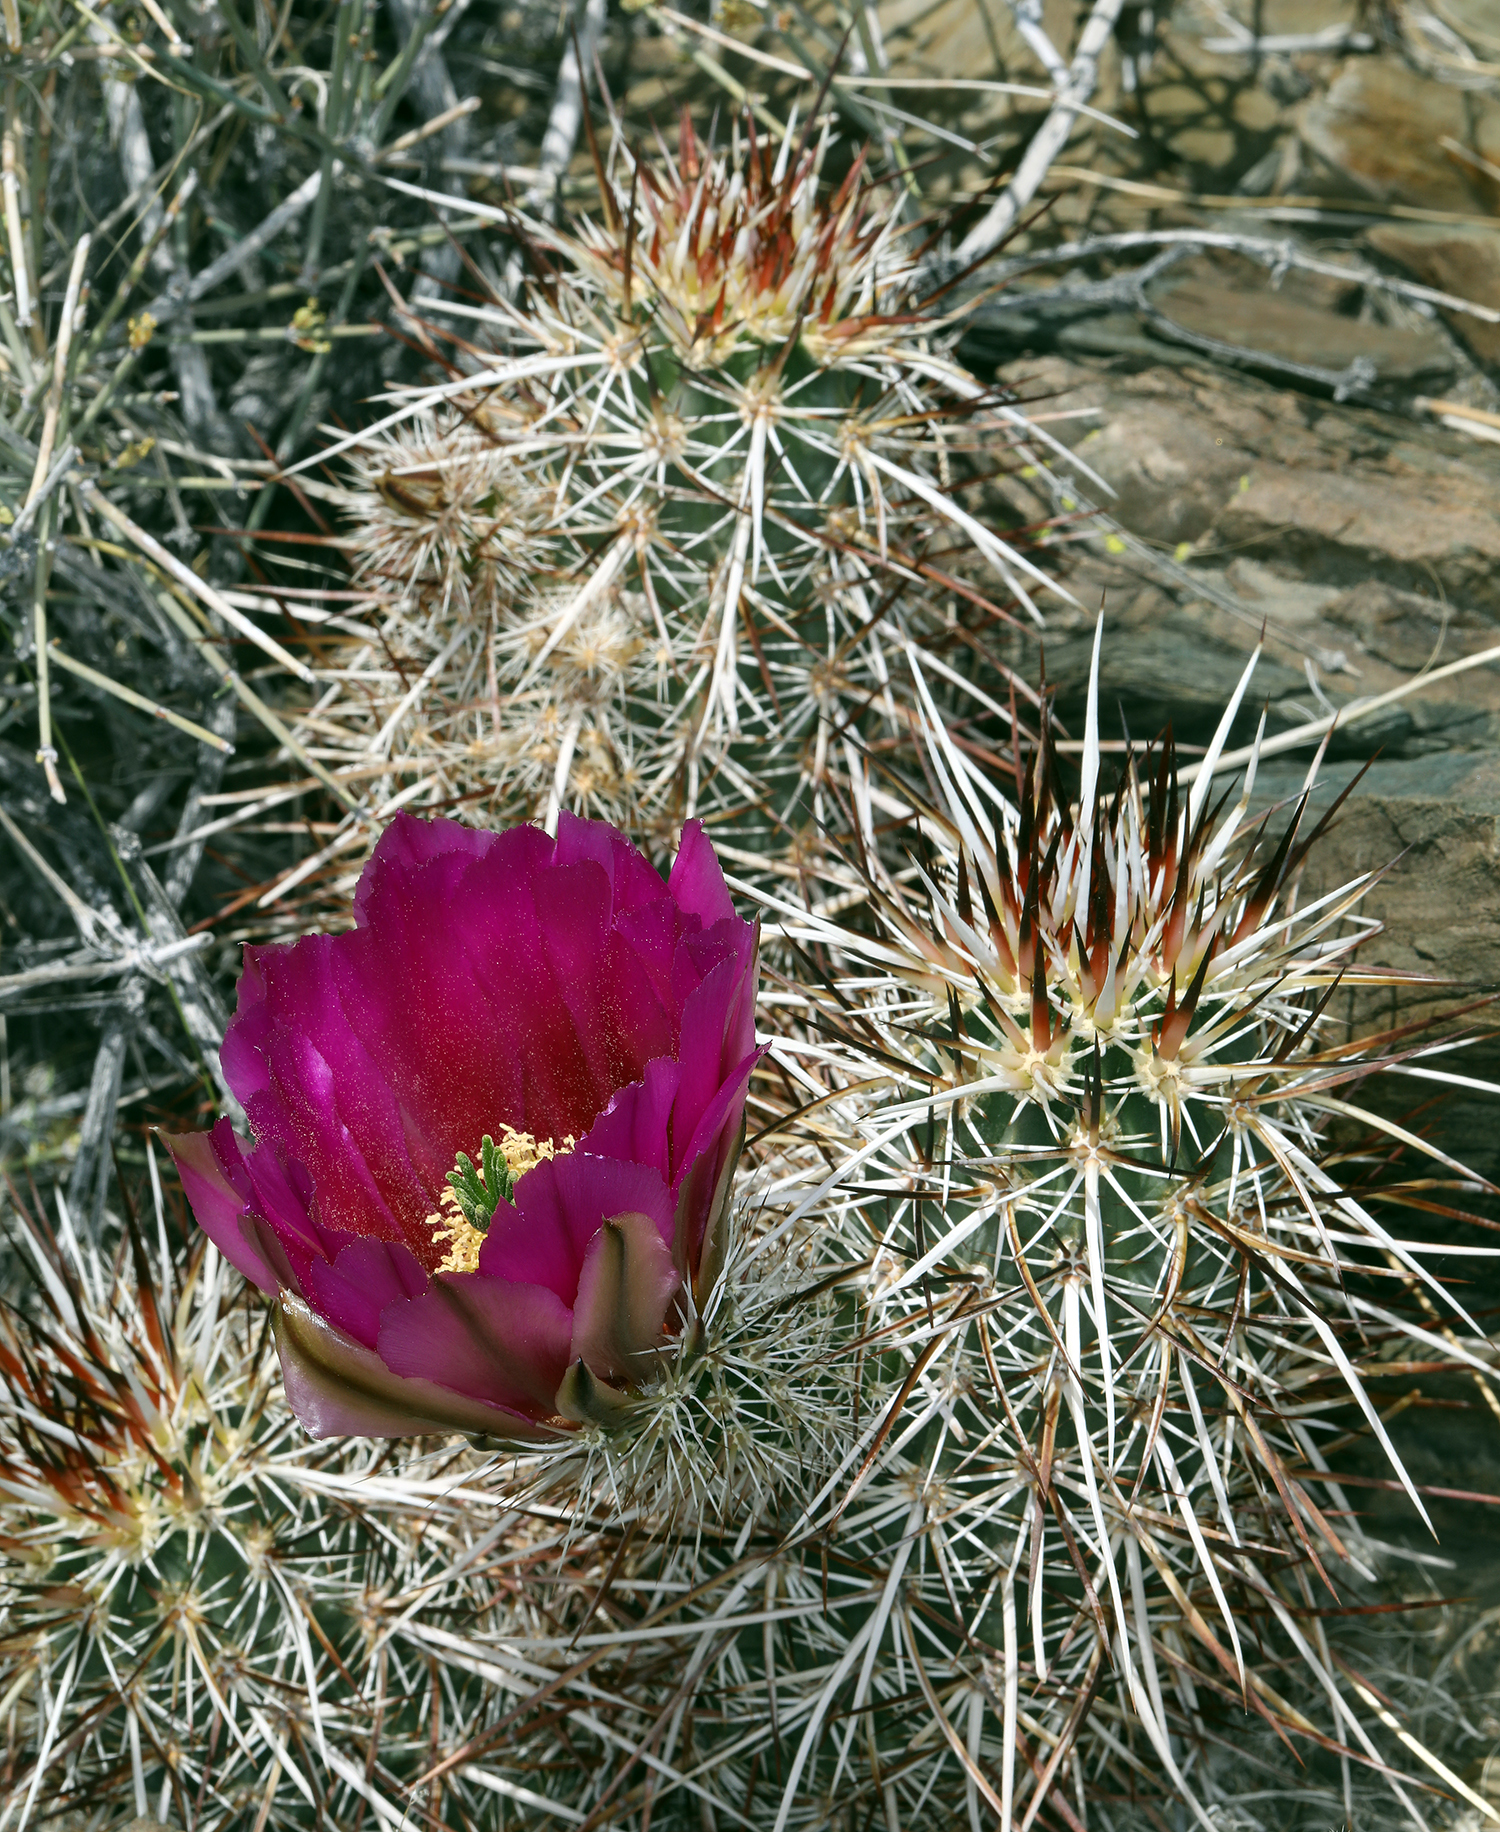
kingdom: Plantae
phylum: Tracheophyta
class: Magnoliopsida
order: Caryophyllales
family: Cactaceae
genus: Echinocereus
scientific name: Echinocereus engelmannii
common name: Engelmann's hedgehog cactus
